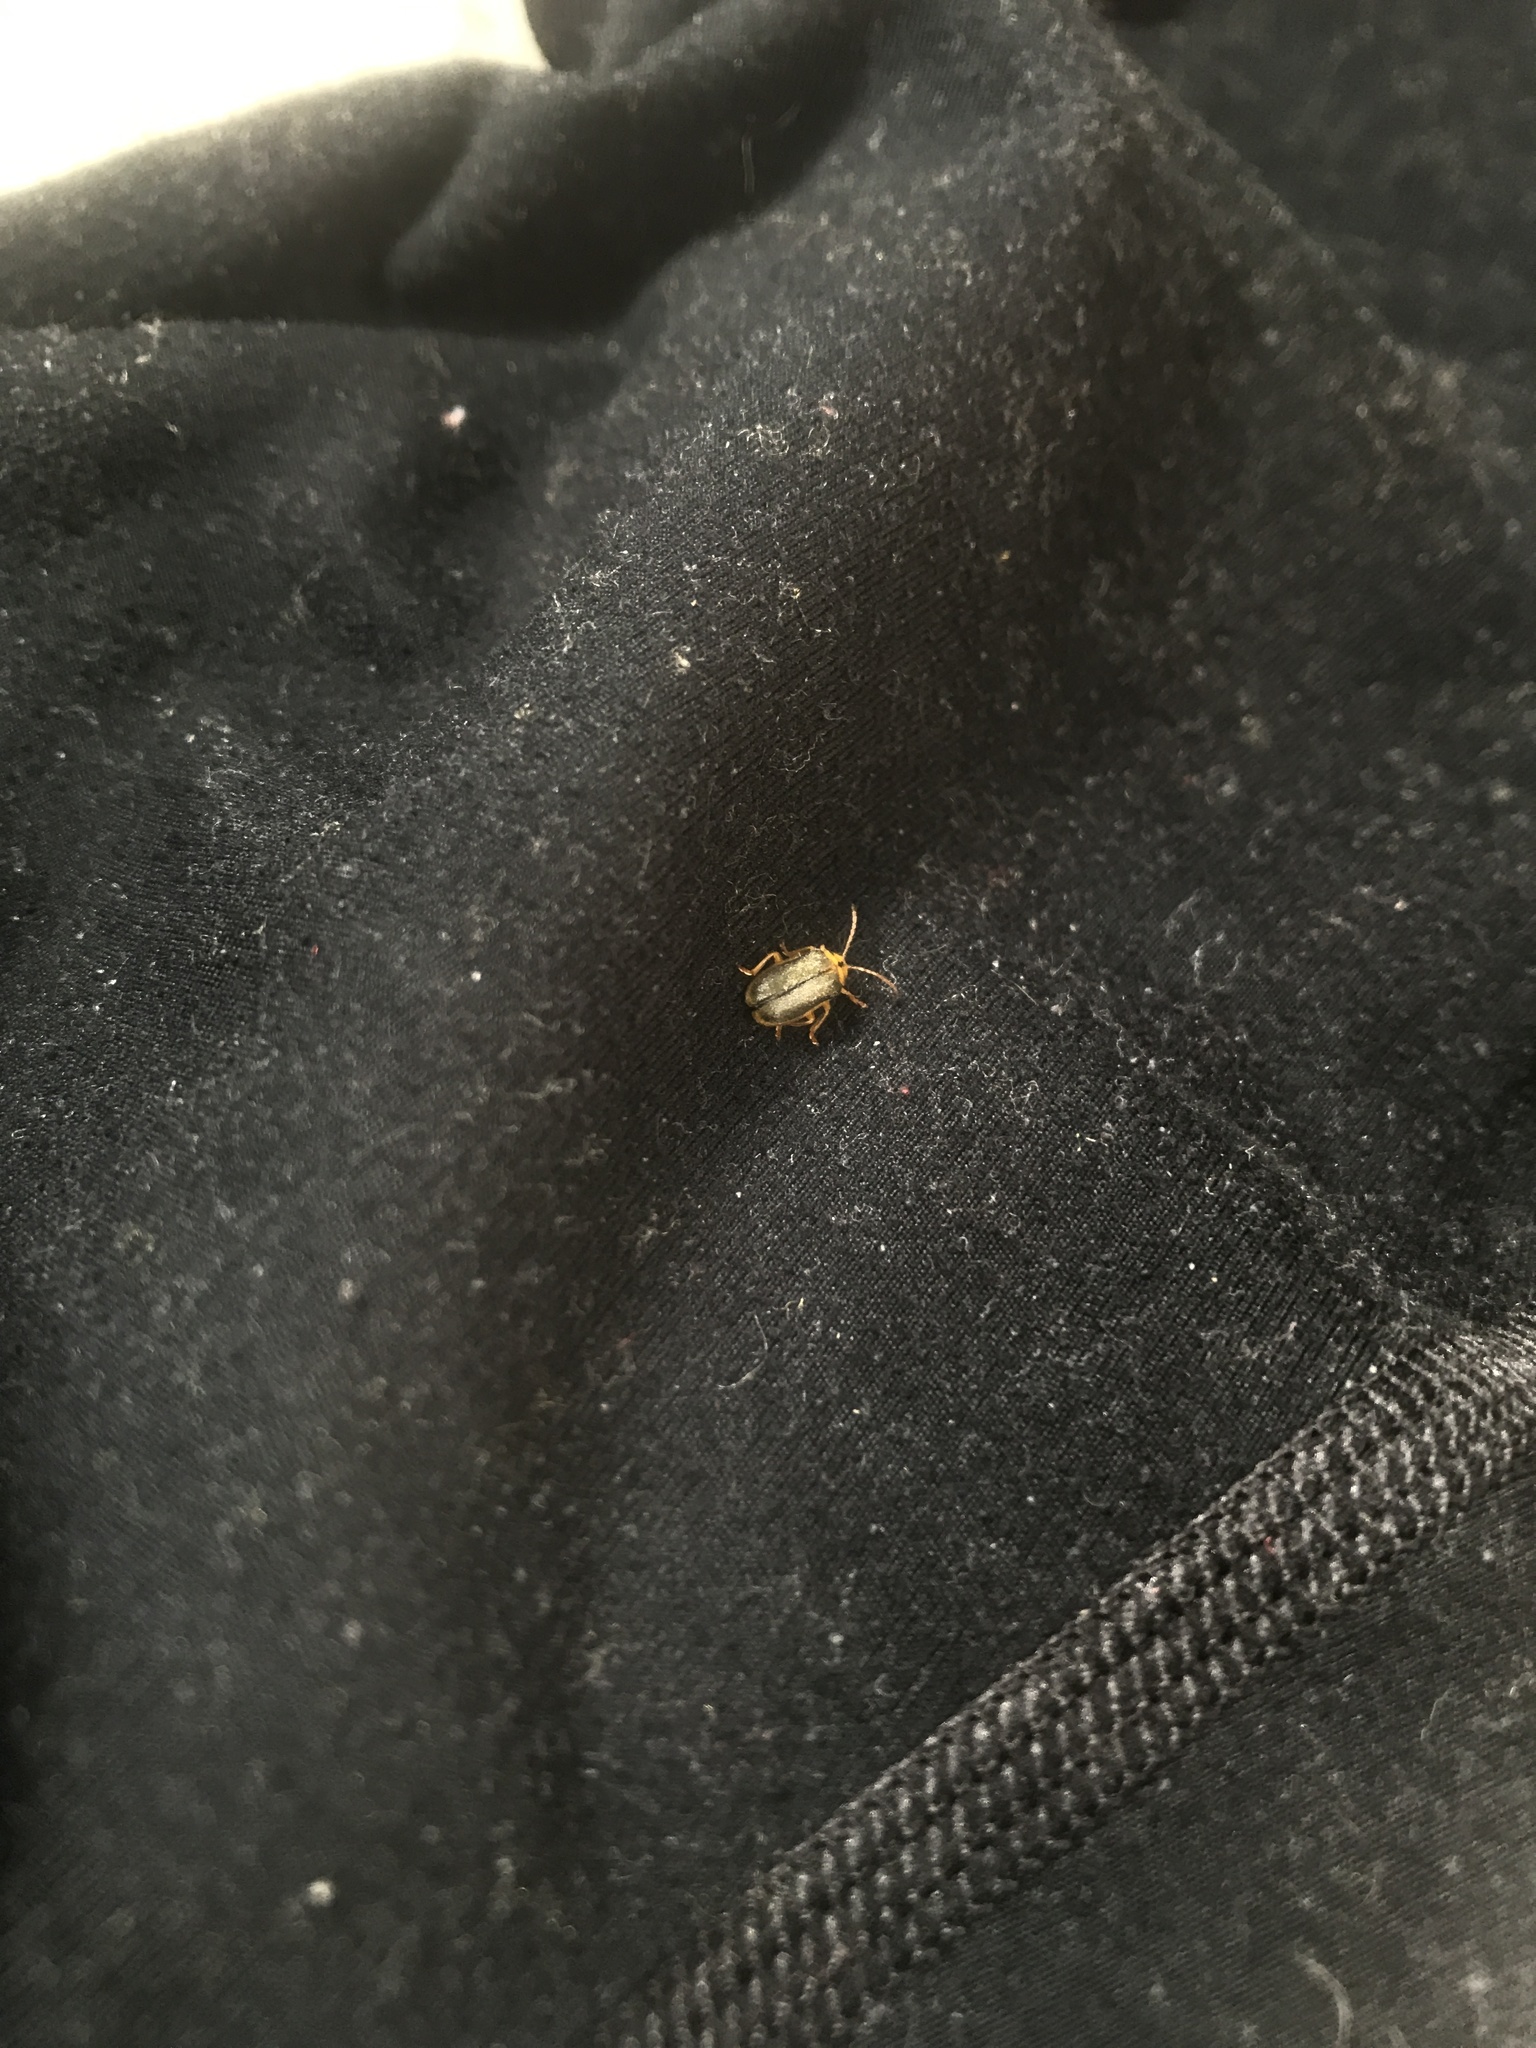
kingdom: Animalia
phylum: Arthropoda
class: Insecta
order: Coleoptera
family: Chrysomelidae
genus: Xanthogaleruca
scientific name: Xanthogaleruca luteola
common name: Elm leaf beetle
